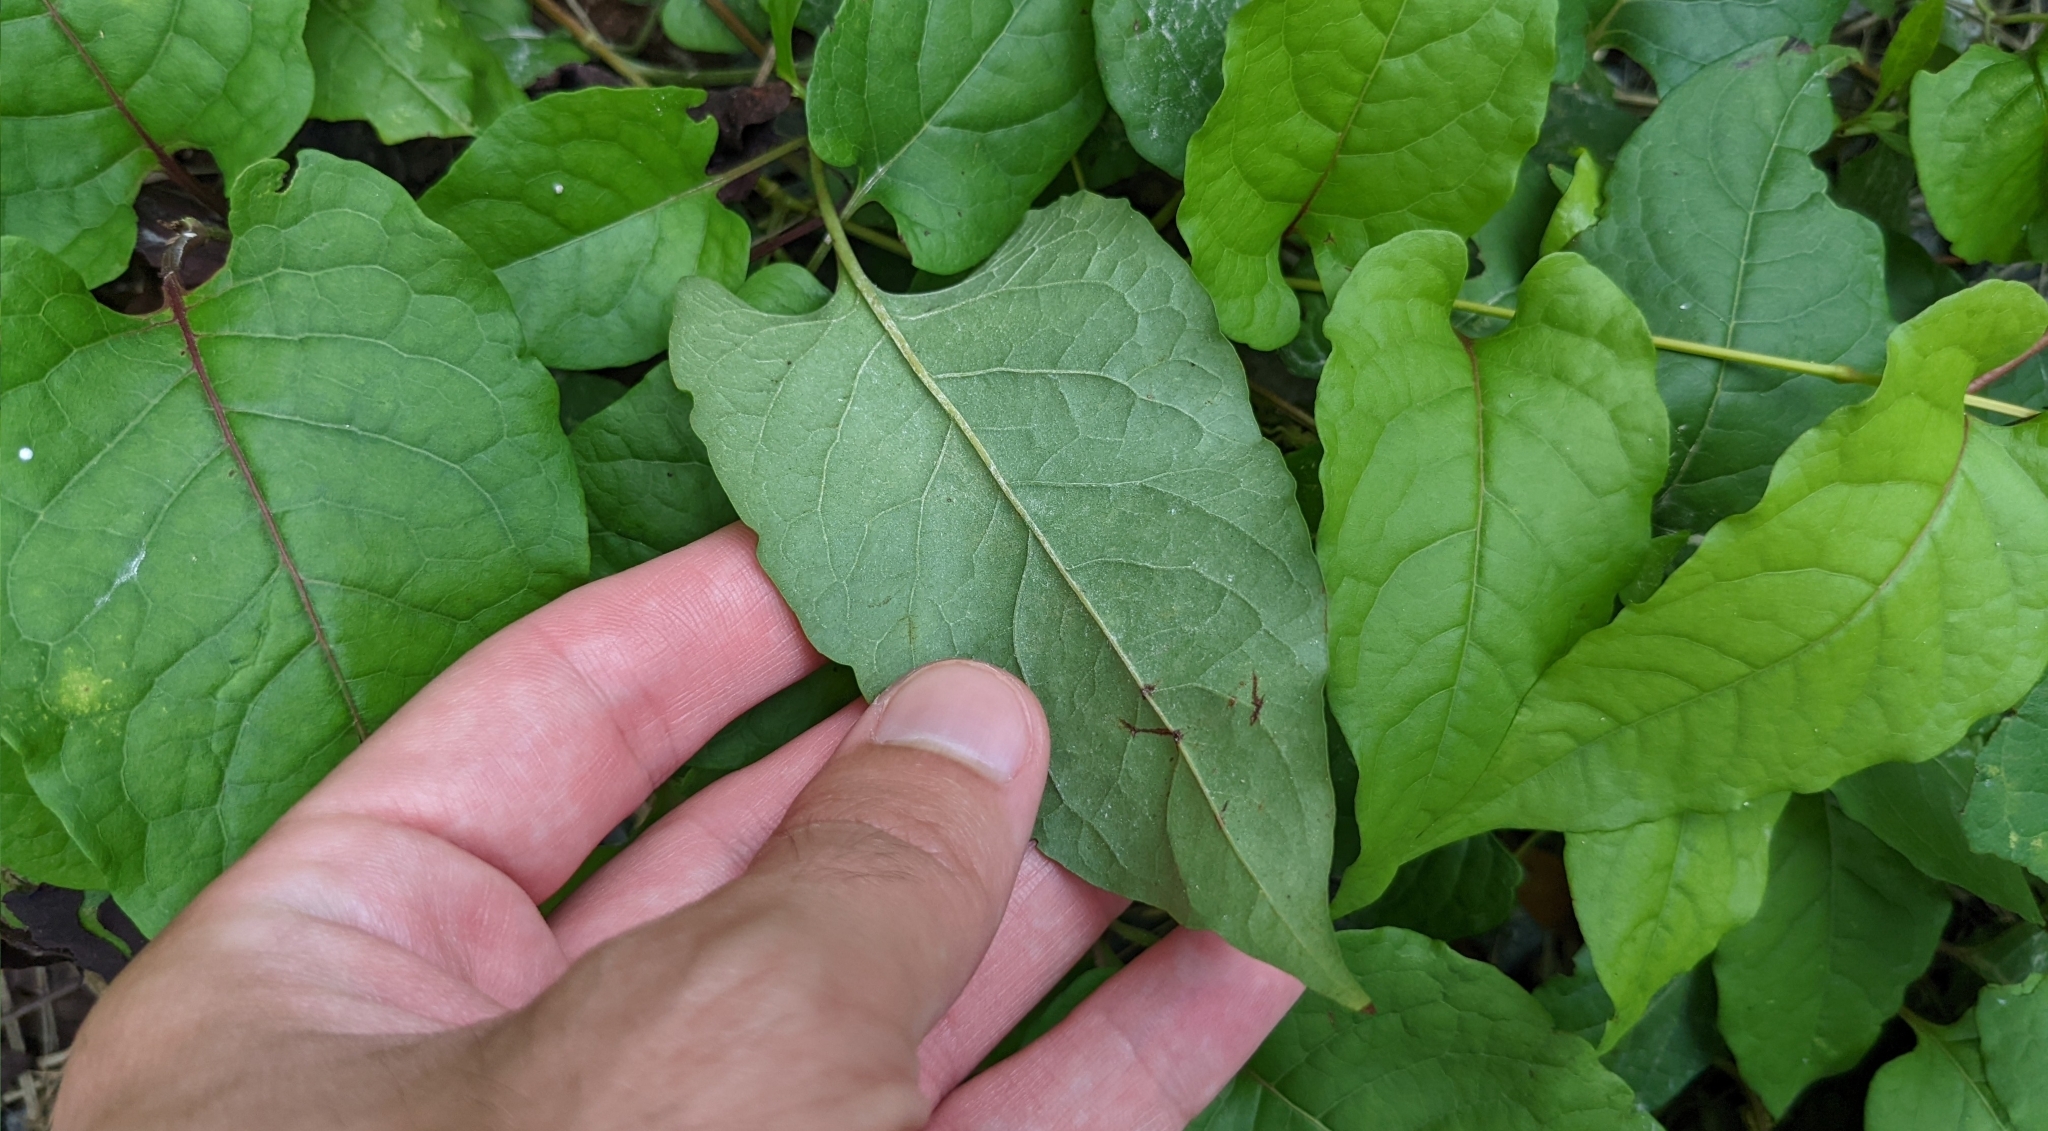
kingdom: Plantae
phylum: Tracheophyta
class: Magnoliopsida
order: Caryophyllales
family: Polygonaceae
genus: Brunnichia
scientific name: Brunnichia ovata
